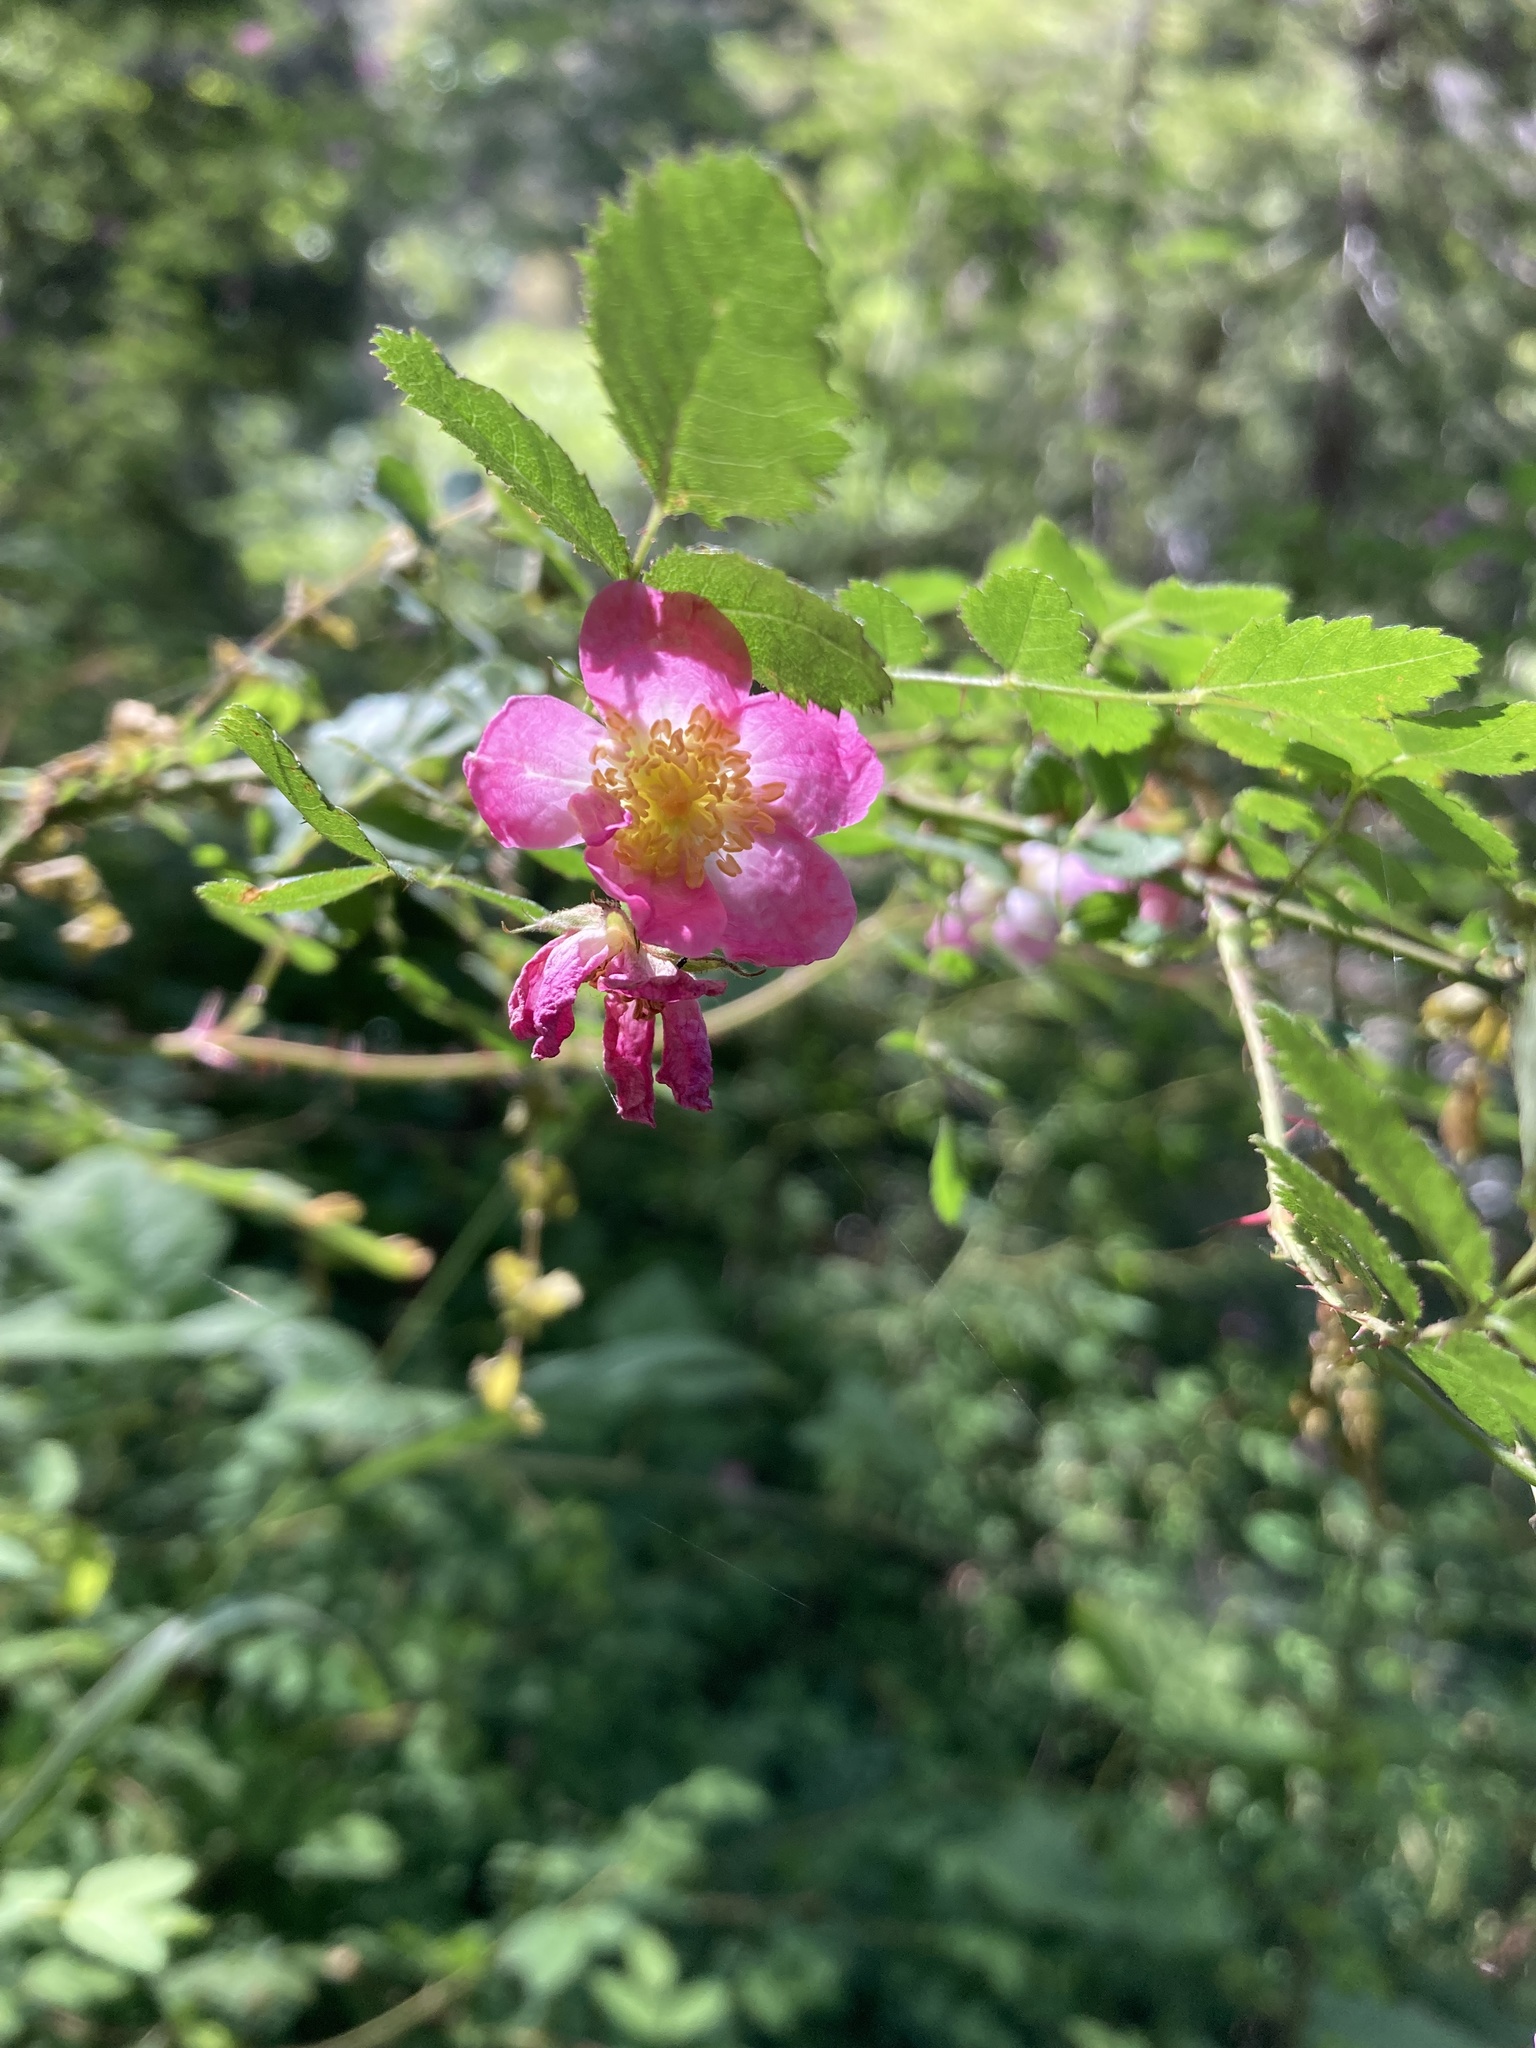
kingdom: Plantae
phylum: Tracheophyta
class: Magnoliopsida
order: Rosales
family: Rosaceae
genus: Rosa
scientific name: Rosa gymnocarpa
